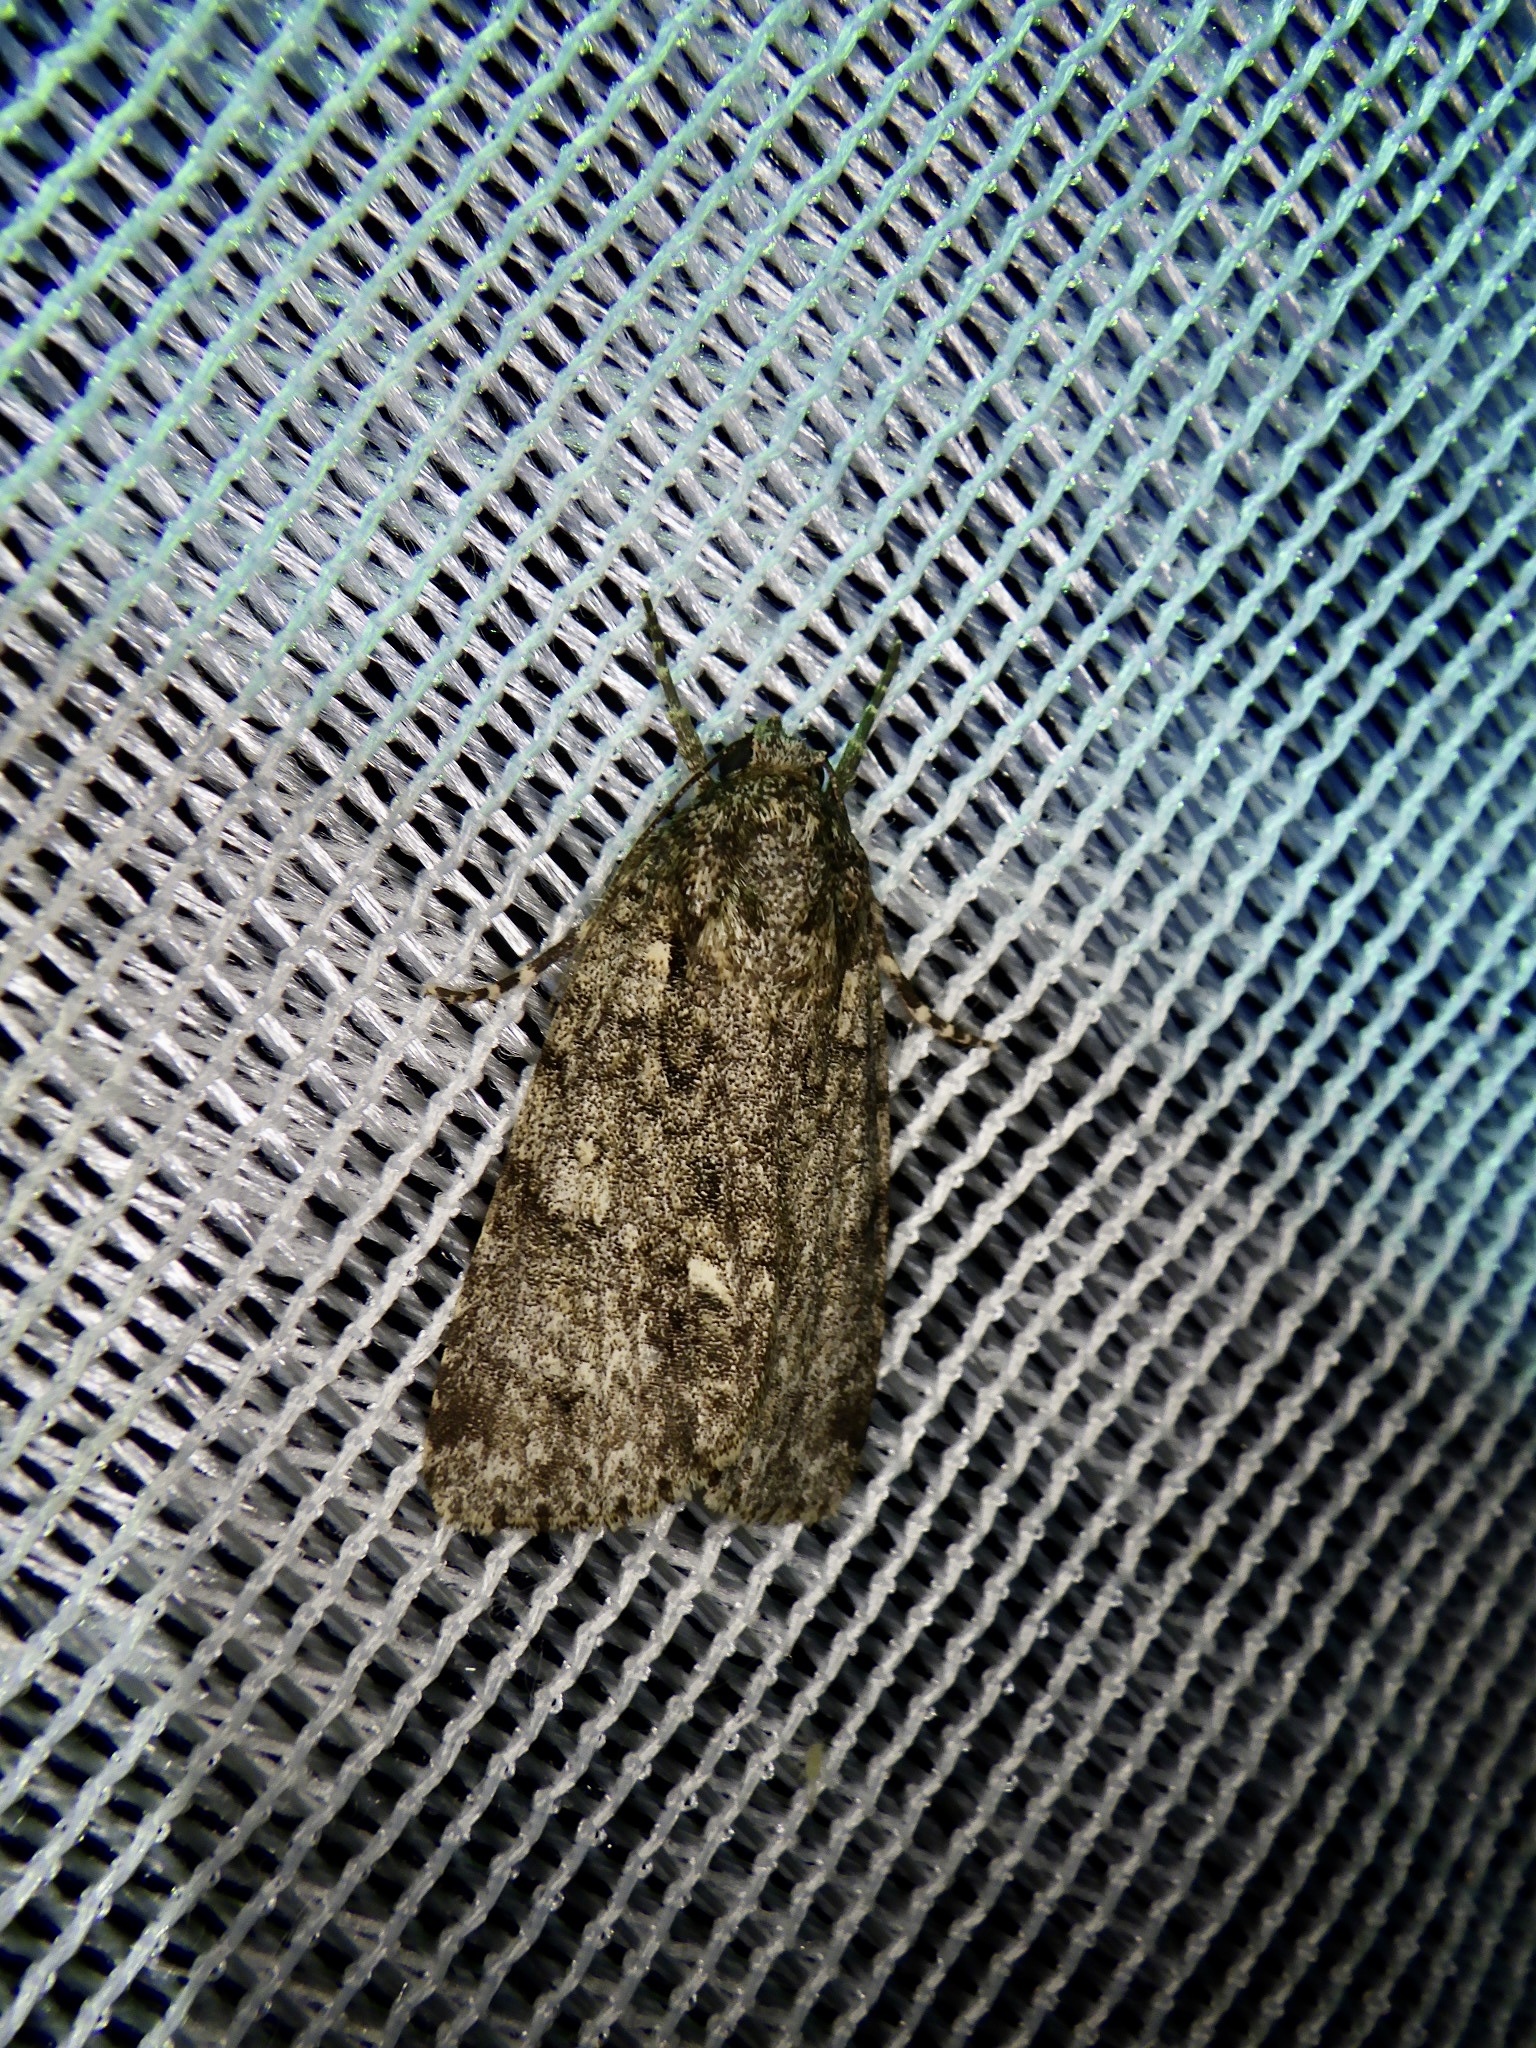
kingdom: Animalia
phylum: Arthropoda
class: Insecta
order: Lepidoptera
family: Noctuidae
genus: Acronicta
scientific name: Acronicta rumicis
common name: Knot grass
